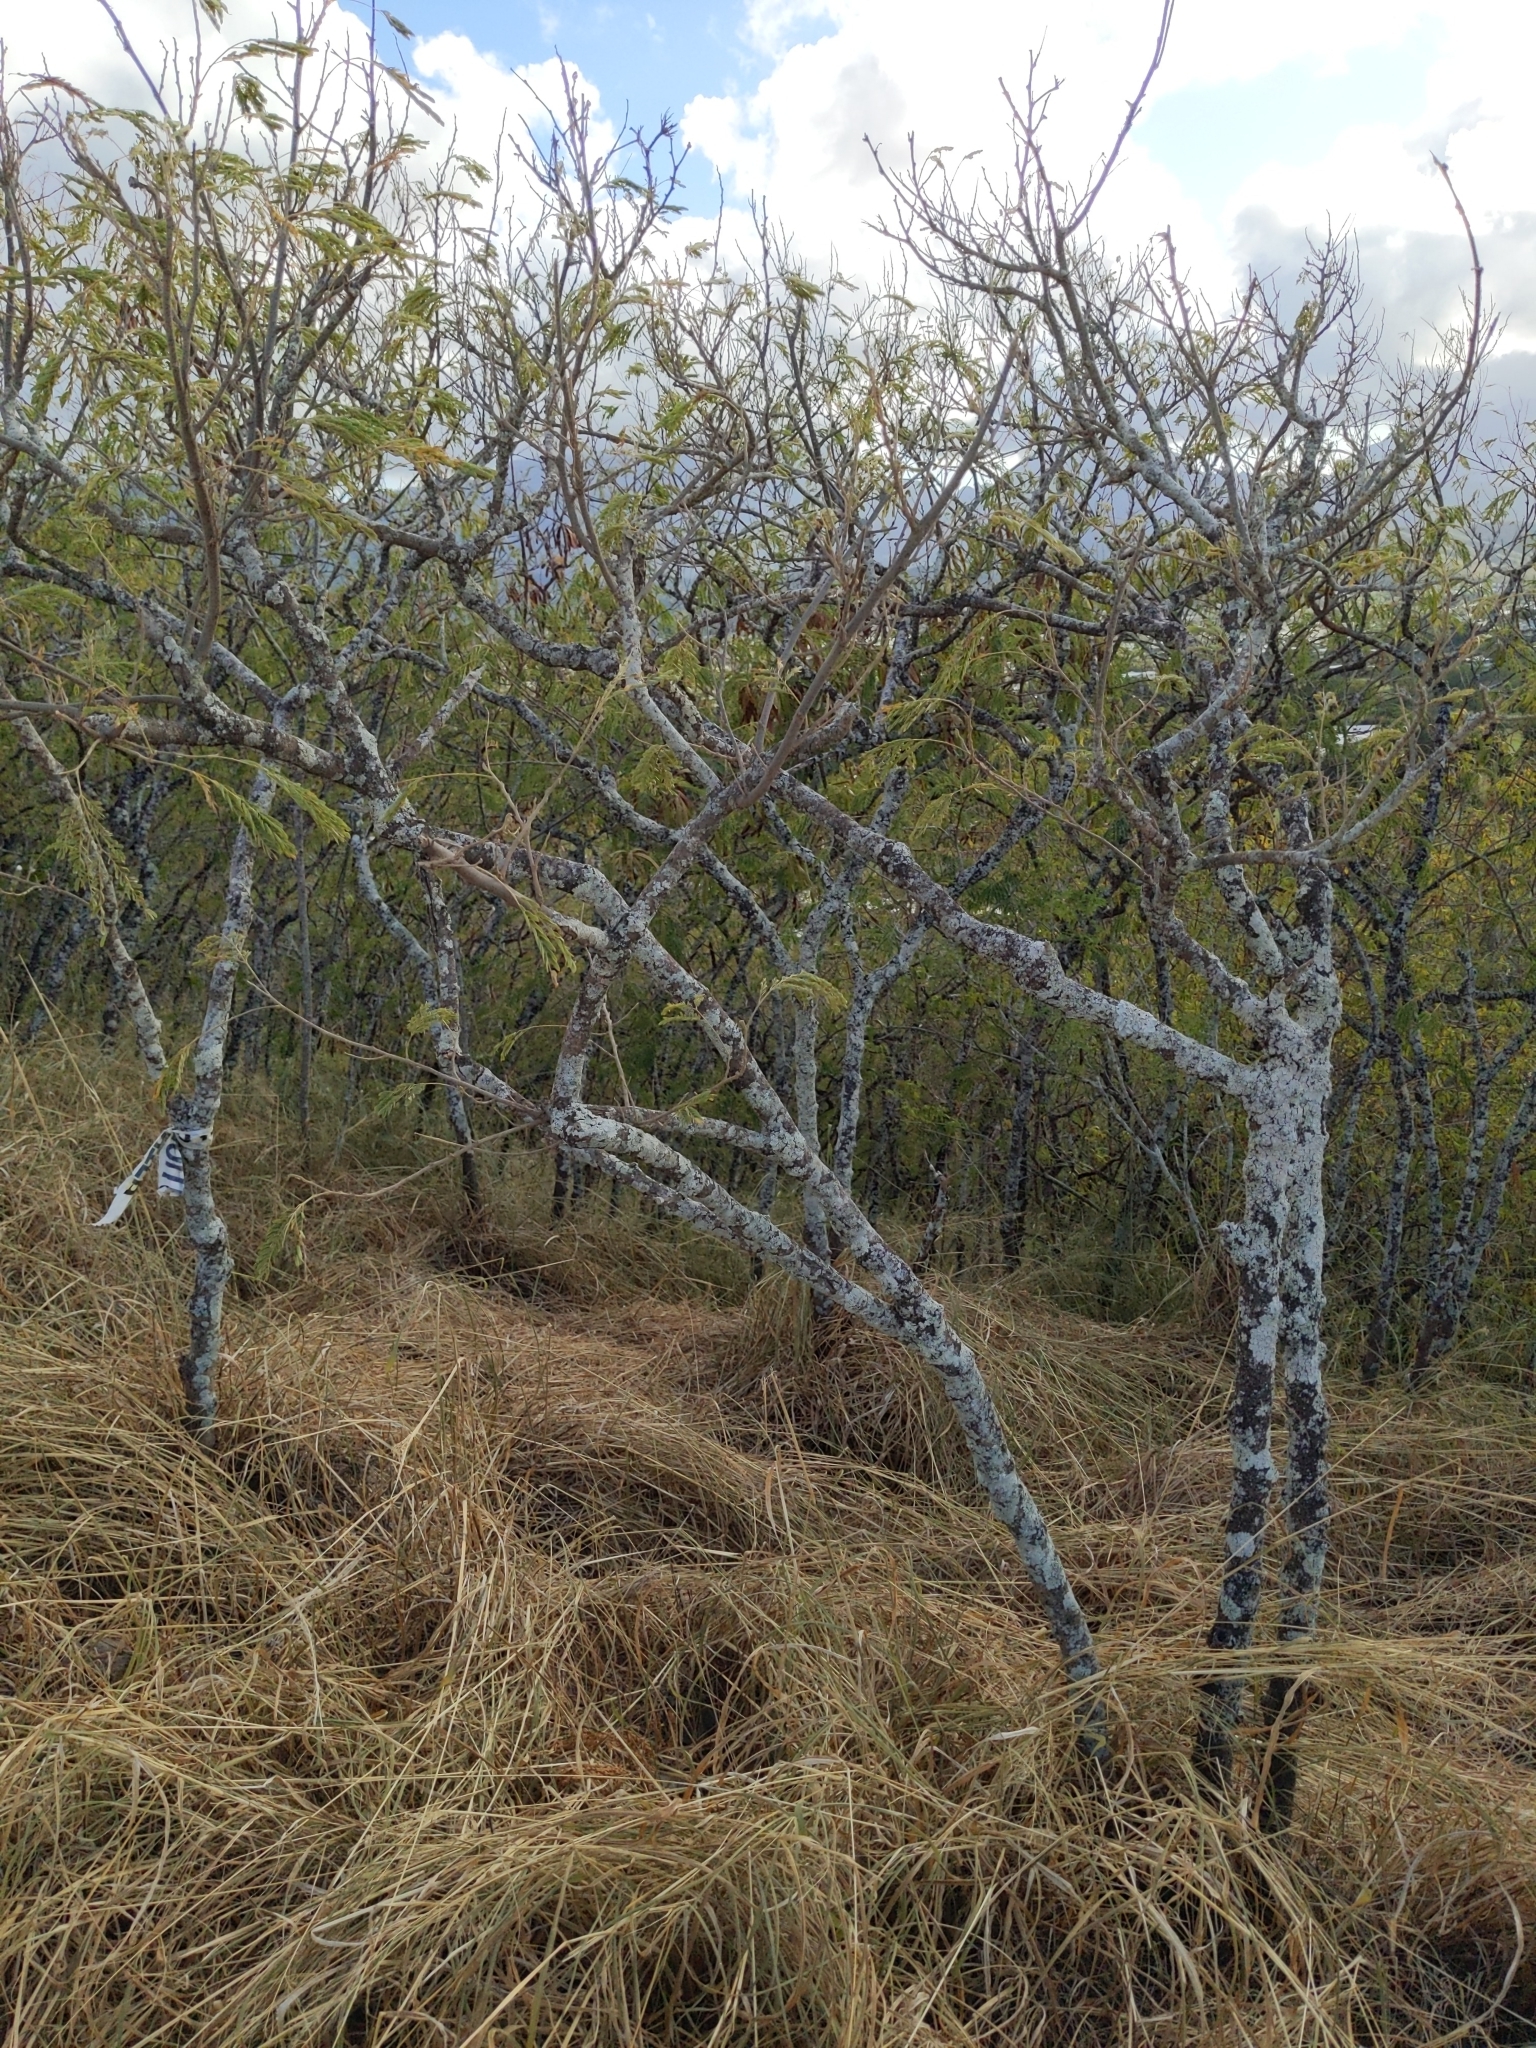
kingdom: Plantae
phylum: Tracheophyta
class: Magnoliopsida
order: Fabales
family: Fabaceae
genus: Leucaena
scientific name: Leucaena leucocephala
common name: White leadtree
